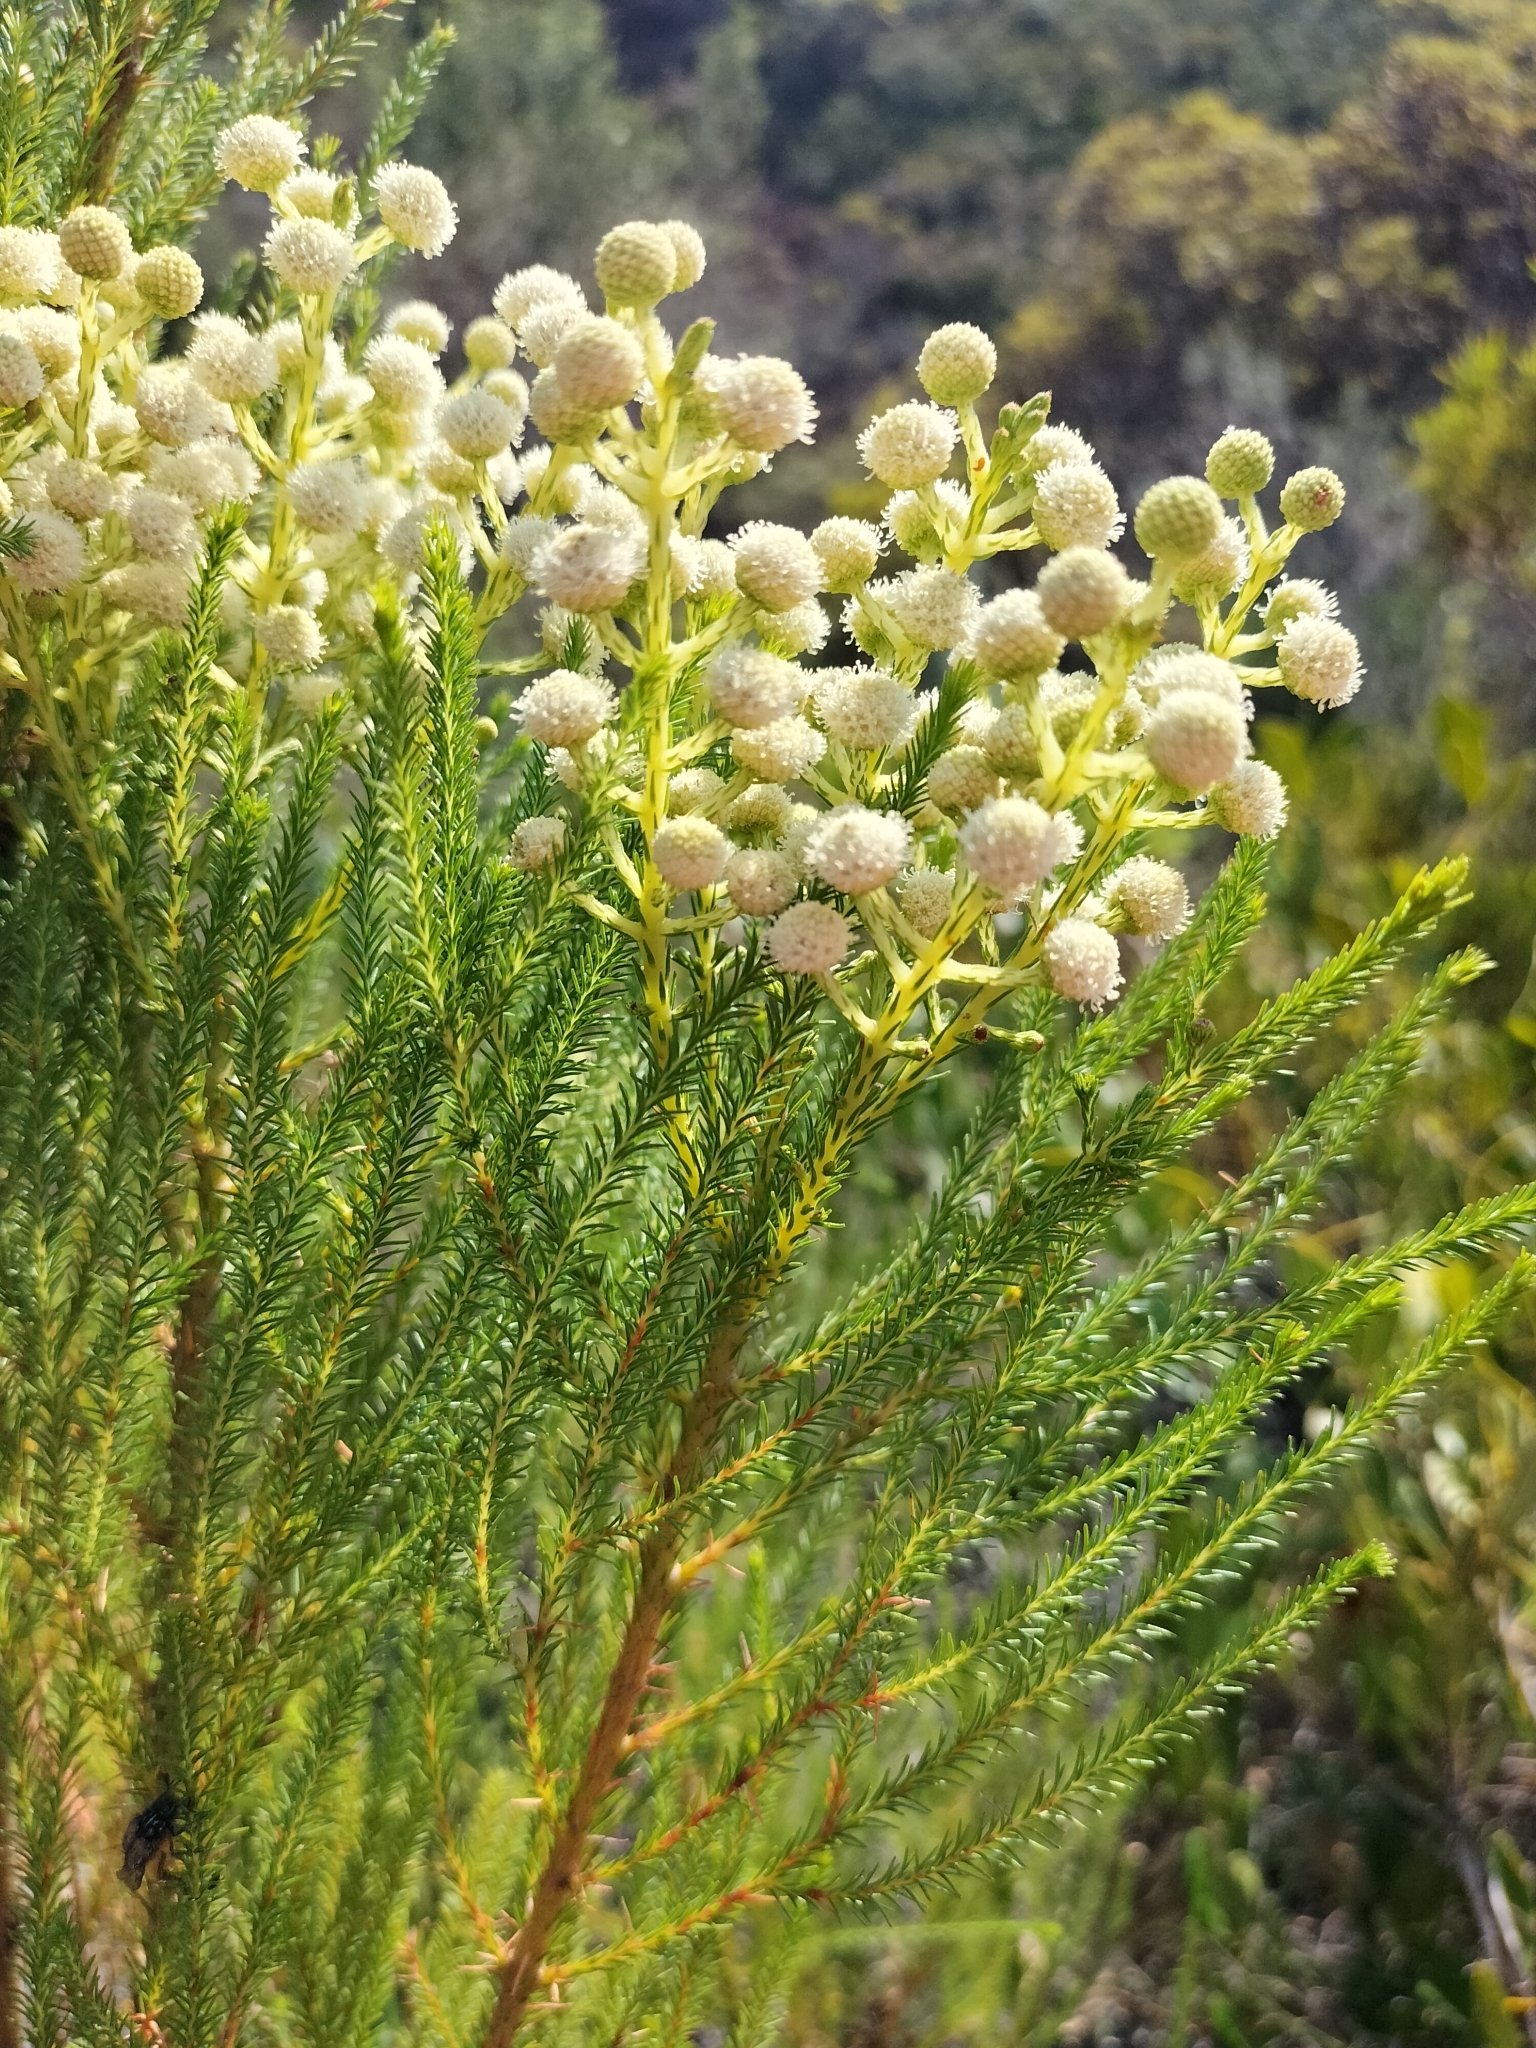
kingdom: Plantae
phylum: Tracheophyta
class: Magnoliopsida
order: Bruniales
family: Bruniaceae
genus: Berzelia
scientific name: Berzelia lanuginosa
